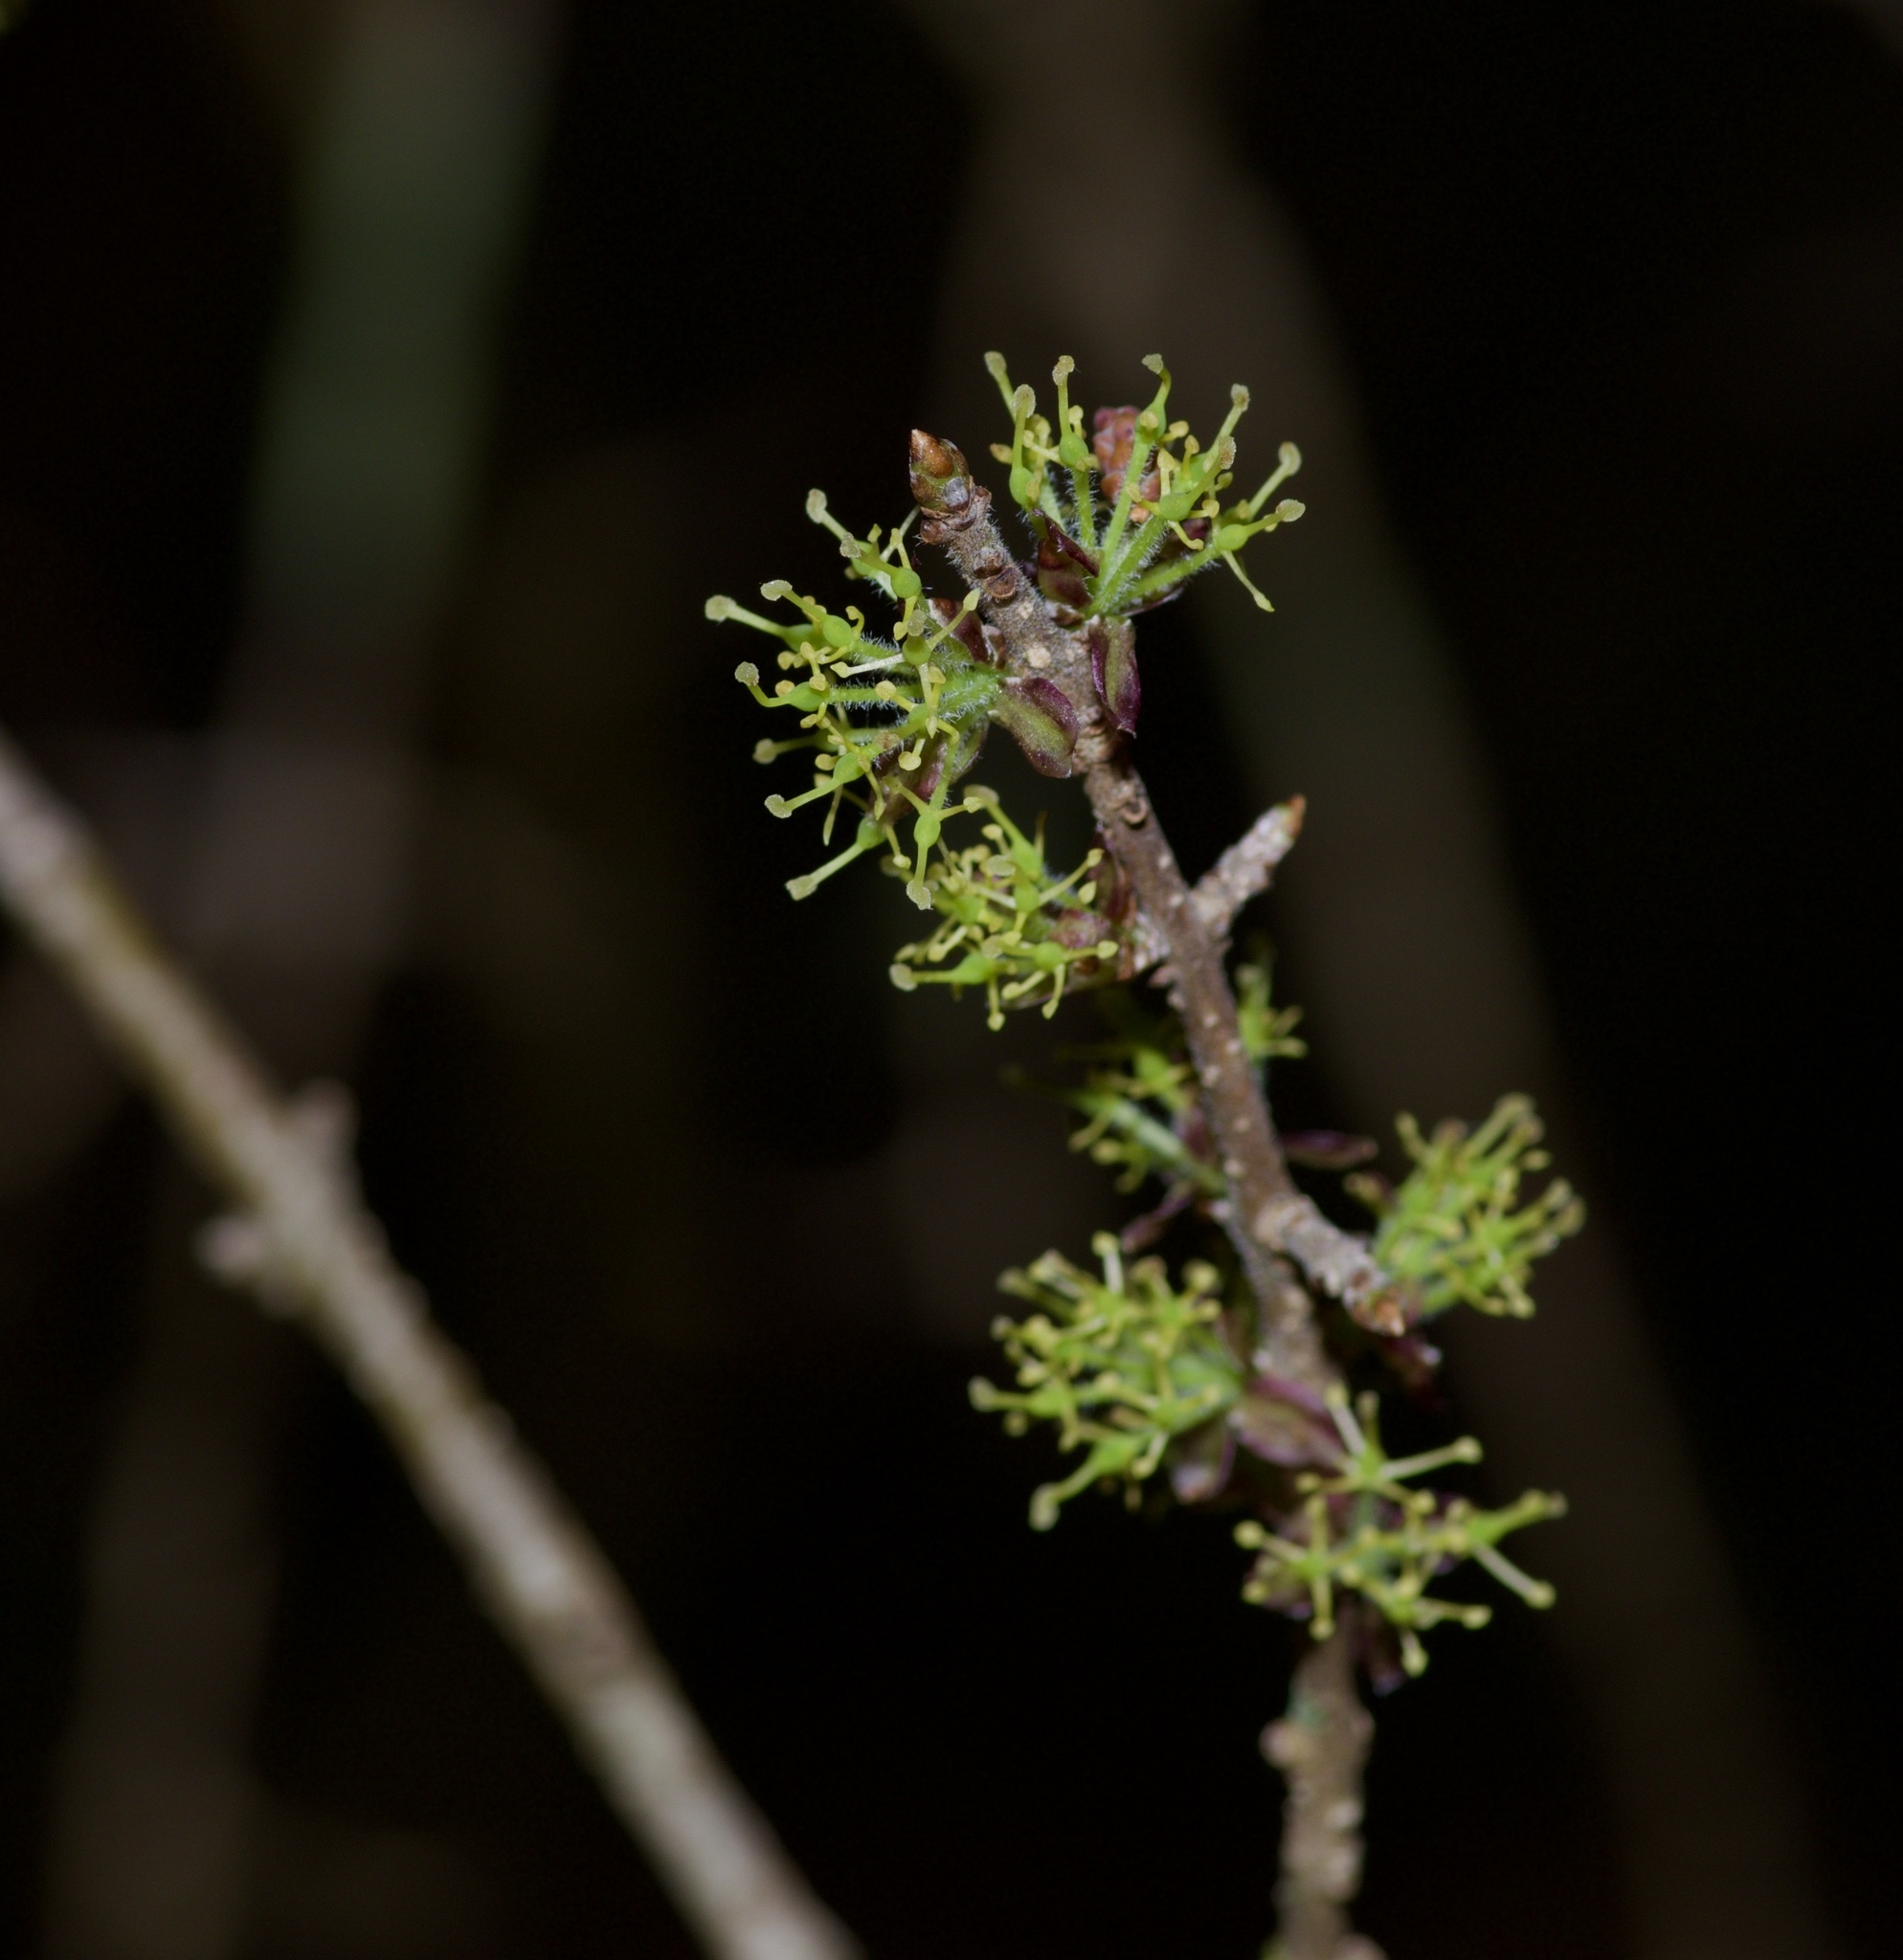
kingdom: Plantae
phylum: Tracheophyta
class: Magnoliopsida
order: Lamiales
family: Oleaceae
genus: Forestiera
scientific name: Forestiera pubescens
